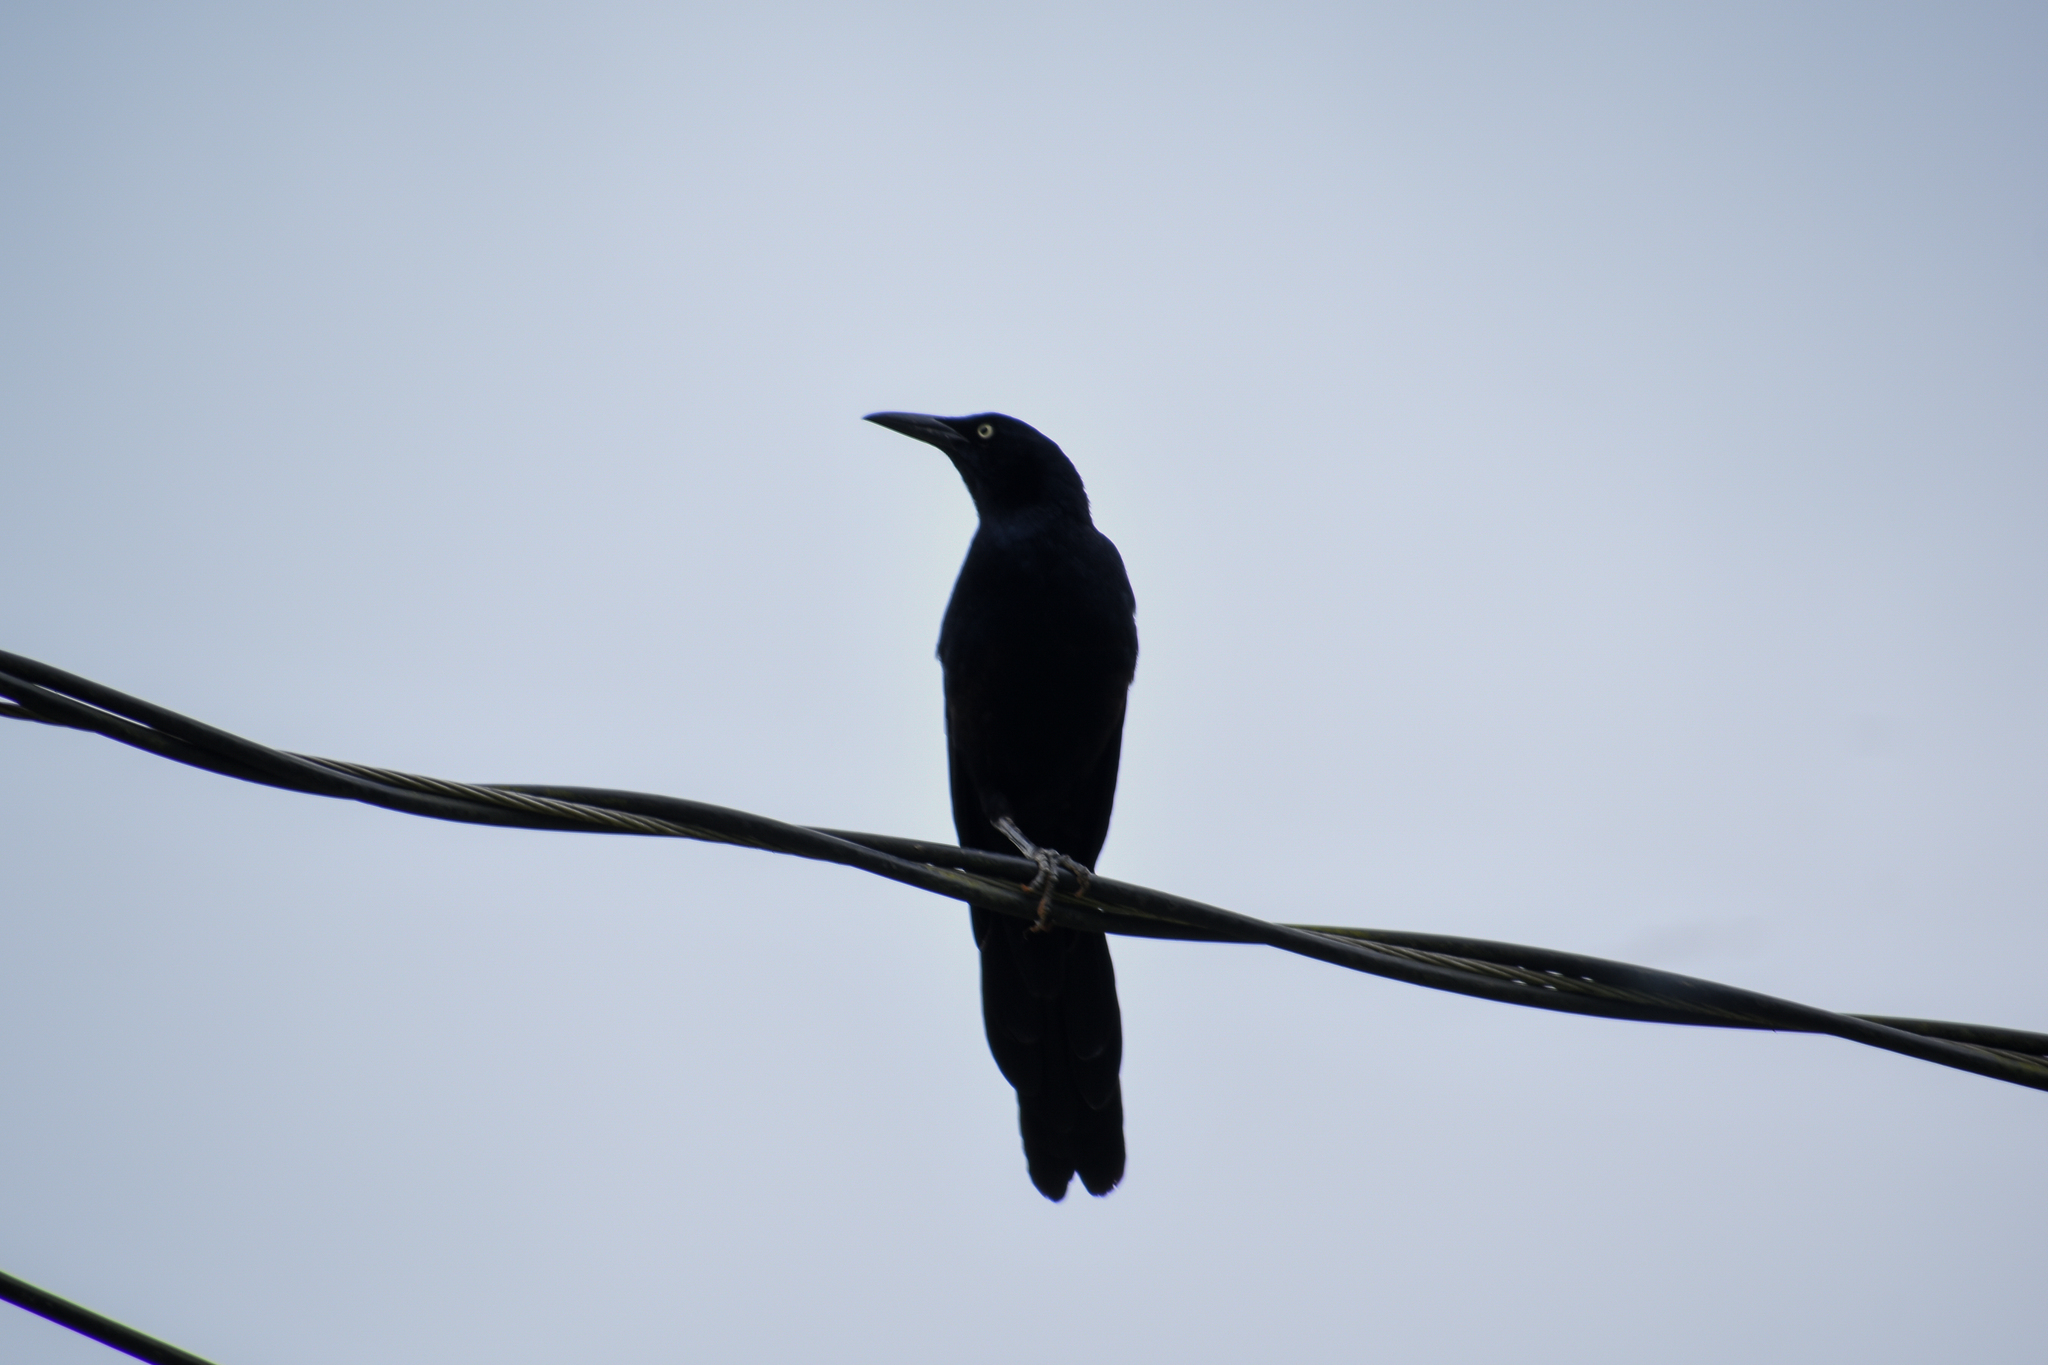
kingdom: Animalia
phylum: Chordata
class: Aves
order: Passeriformes
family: Icteridae
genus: Quiscalus
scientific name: Quiscalus mexicanus
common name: Great-tailed grackle
